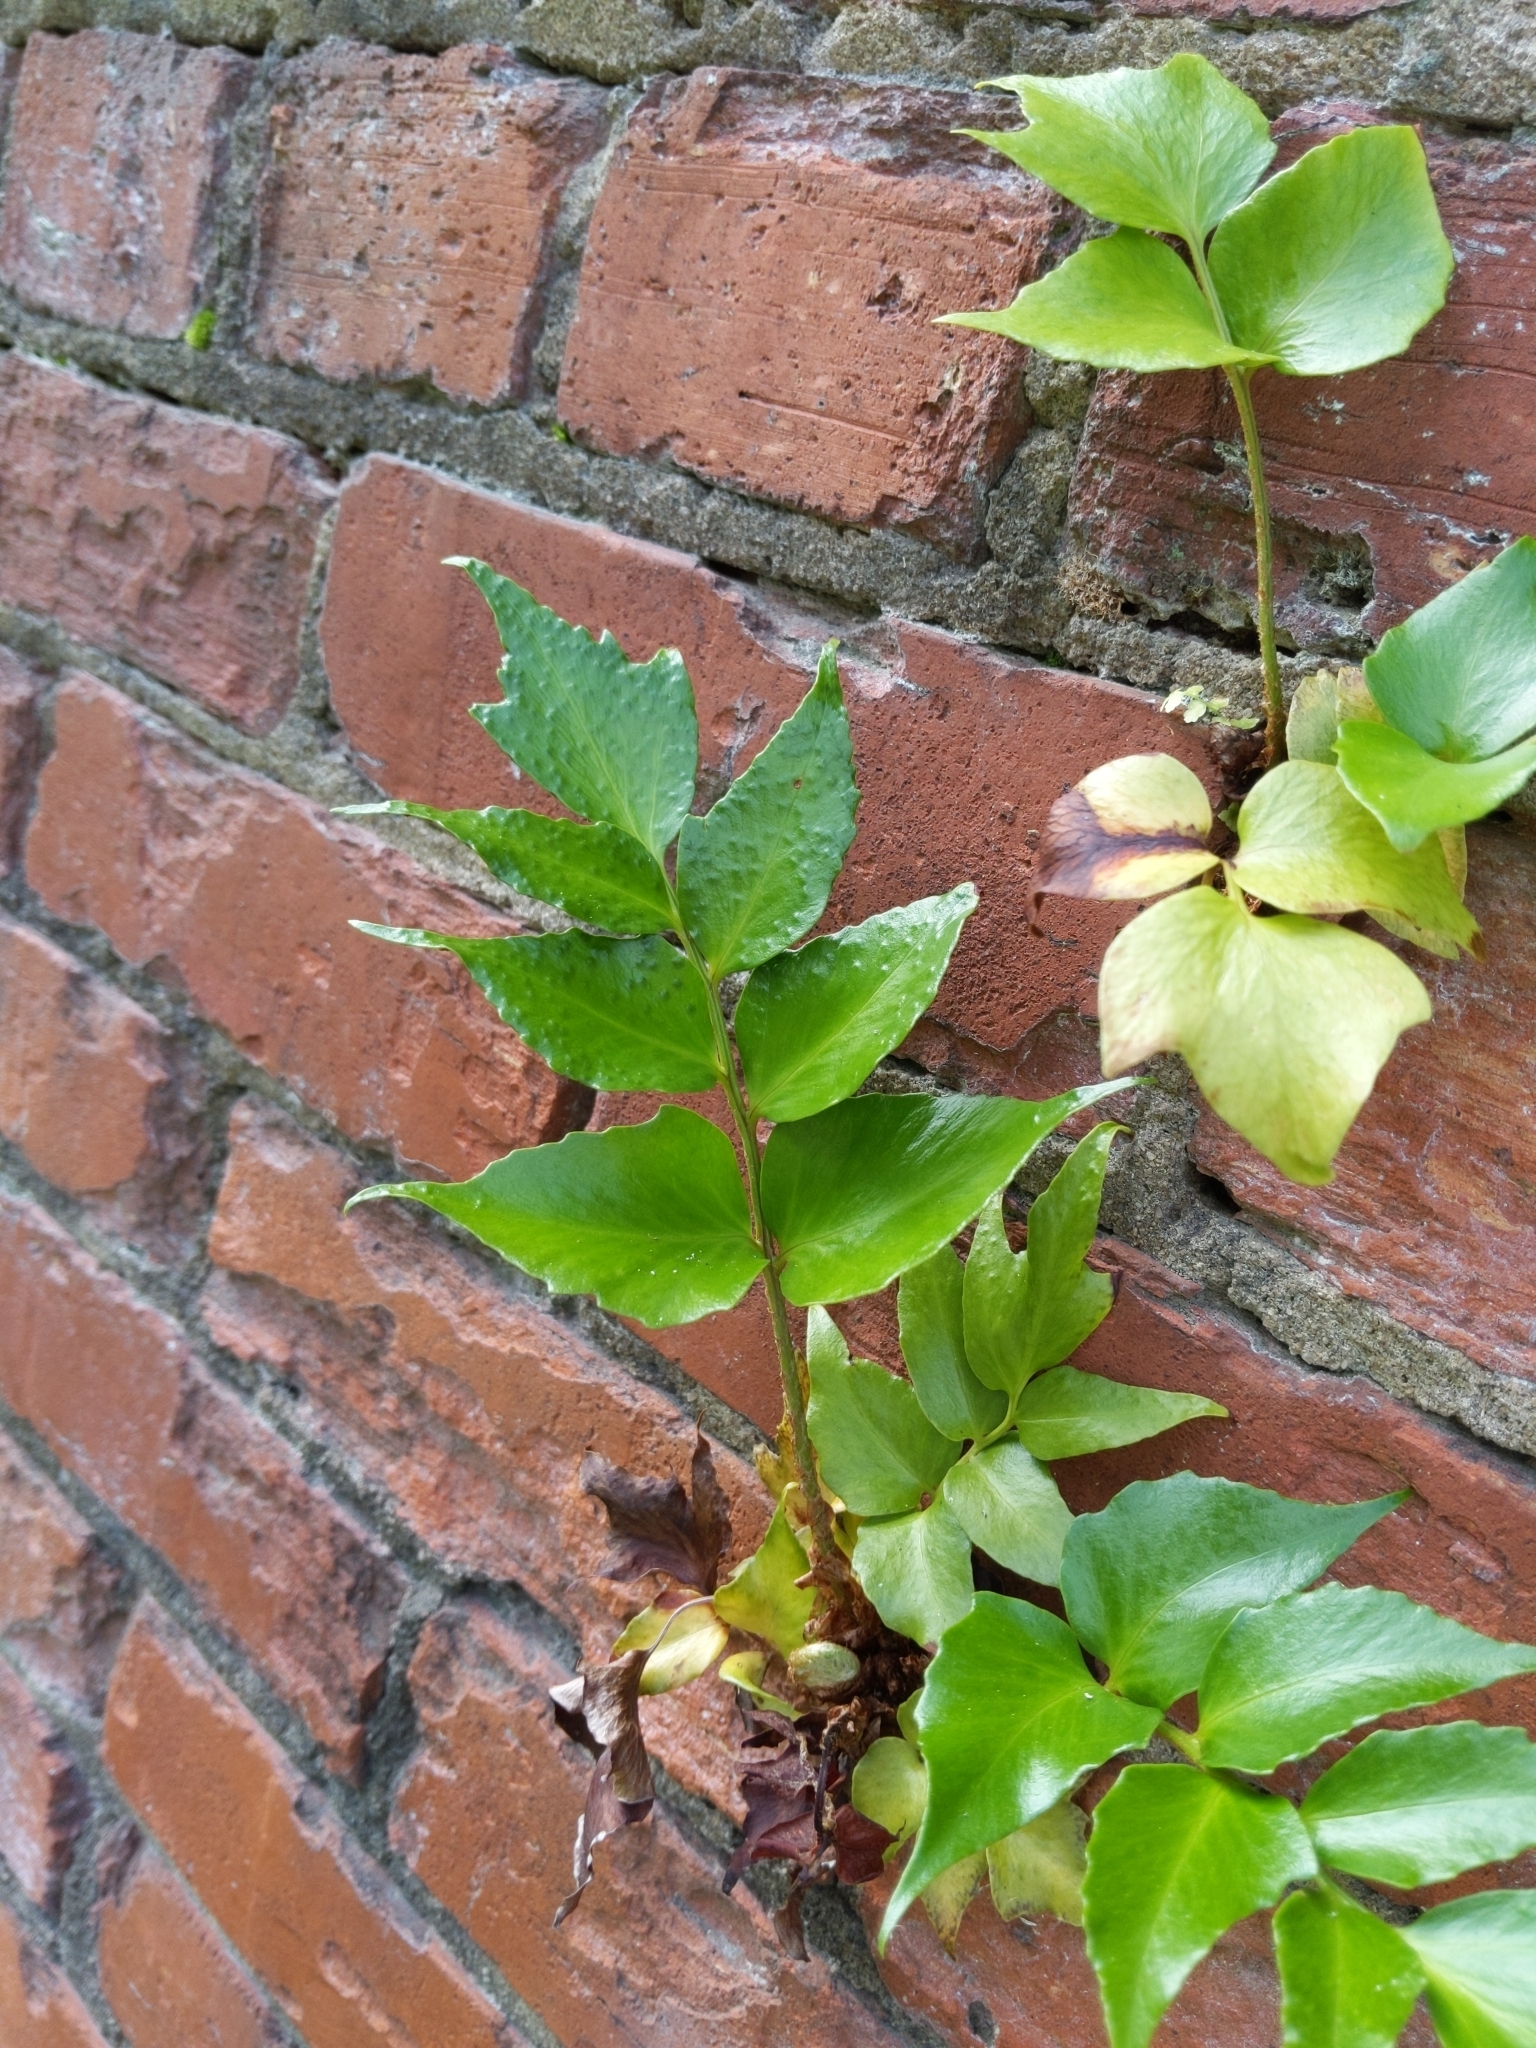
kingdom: Plantae
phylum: Tracheophyta
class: Polypodiopsida
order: Polypodiales
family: Dryopteridaceae
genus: Cyrtomium
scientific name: Cyrtomium falcatum
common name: House holly-fern
